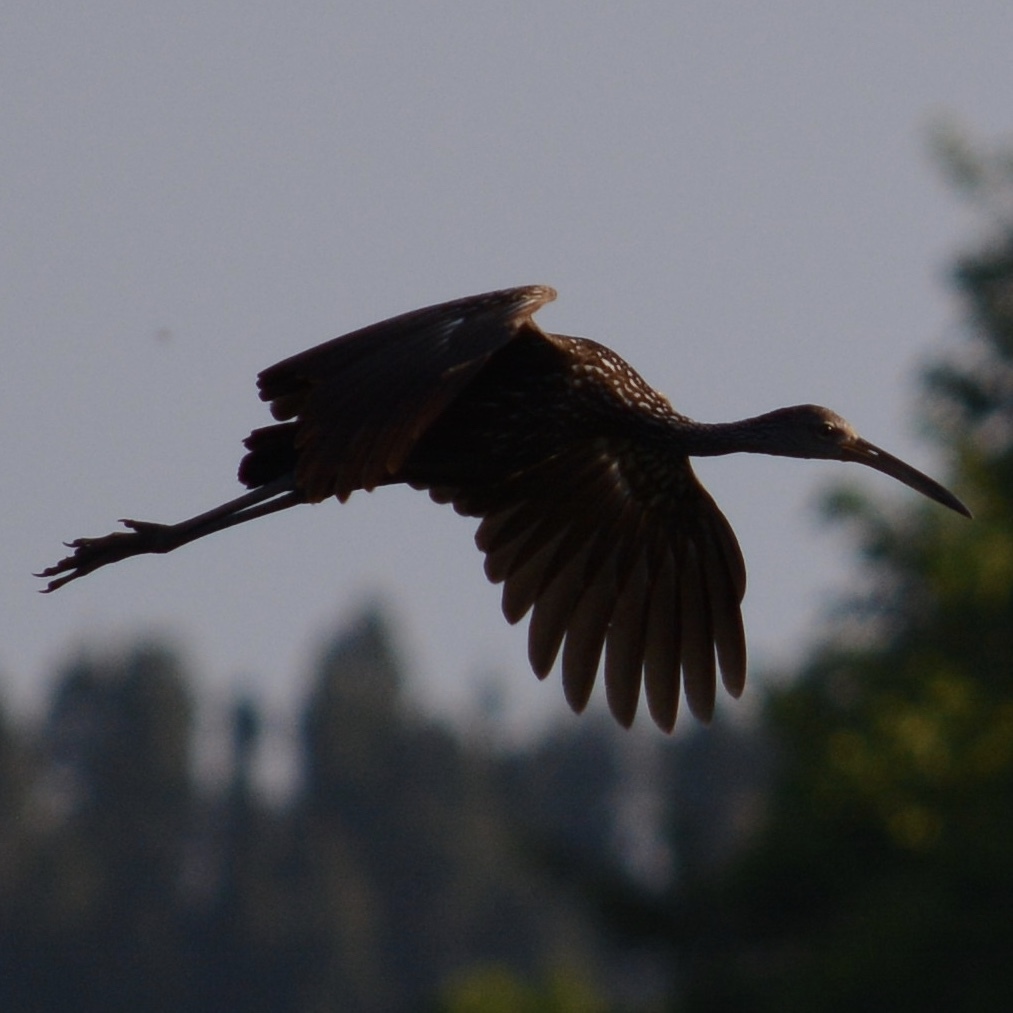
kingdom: Animalia
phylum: Chordata
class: Aves
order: Gruiformes
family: Aramidae
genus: Aramus
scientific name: Aramus guarauna
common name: Limpkin
